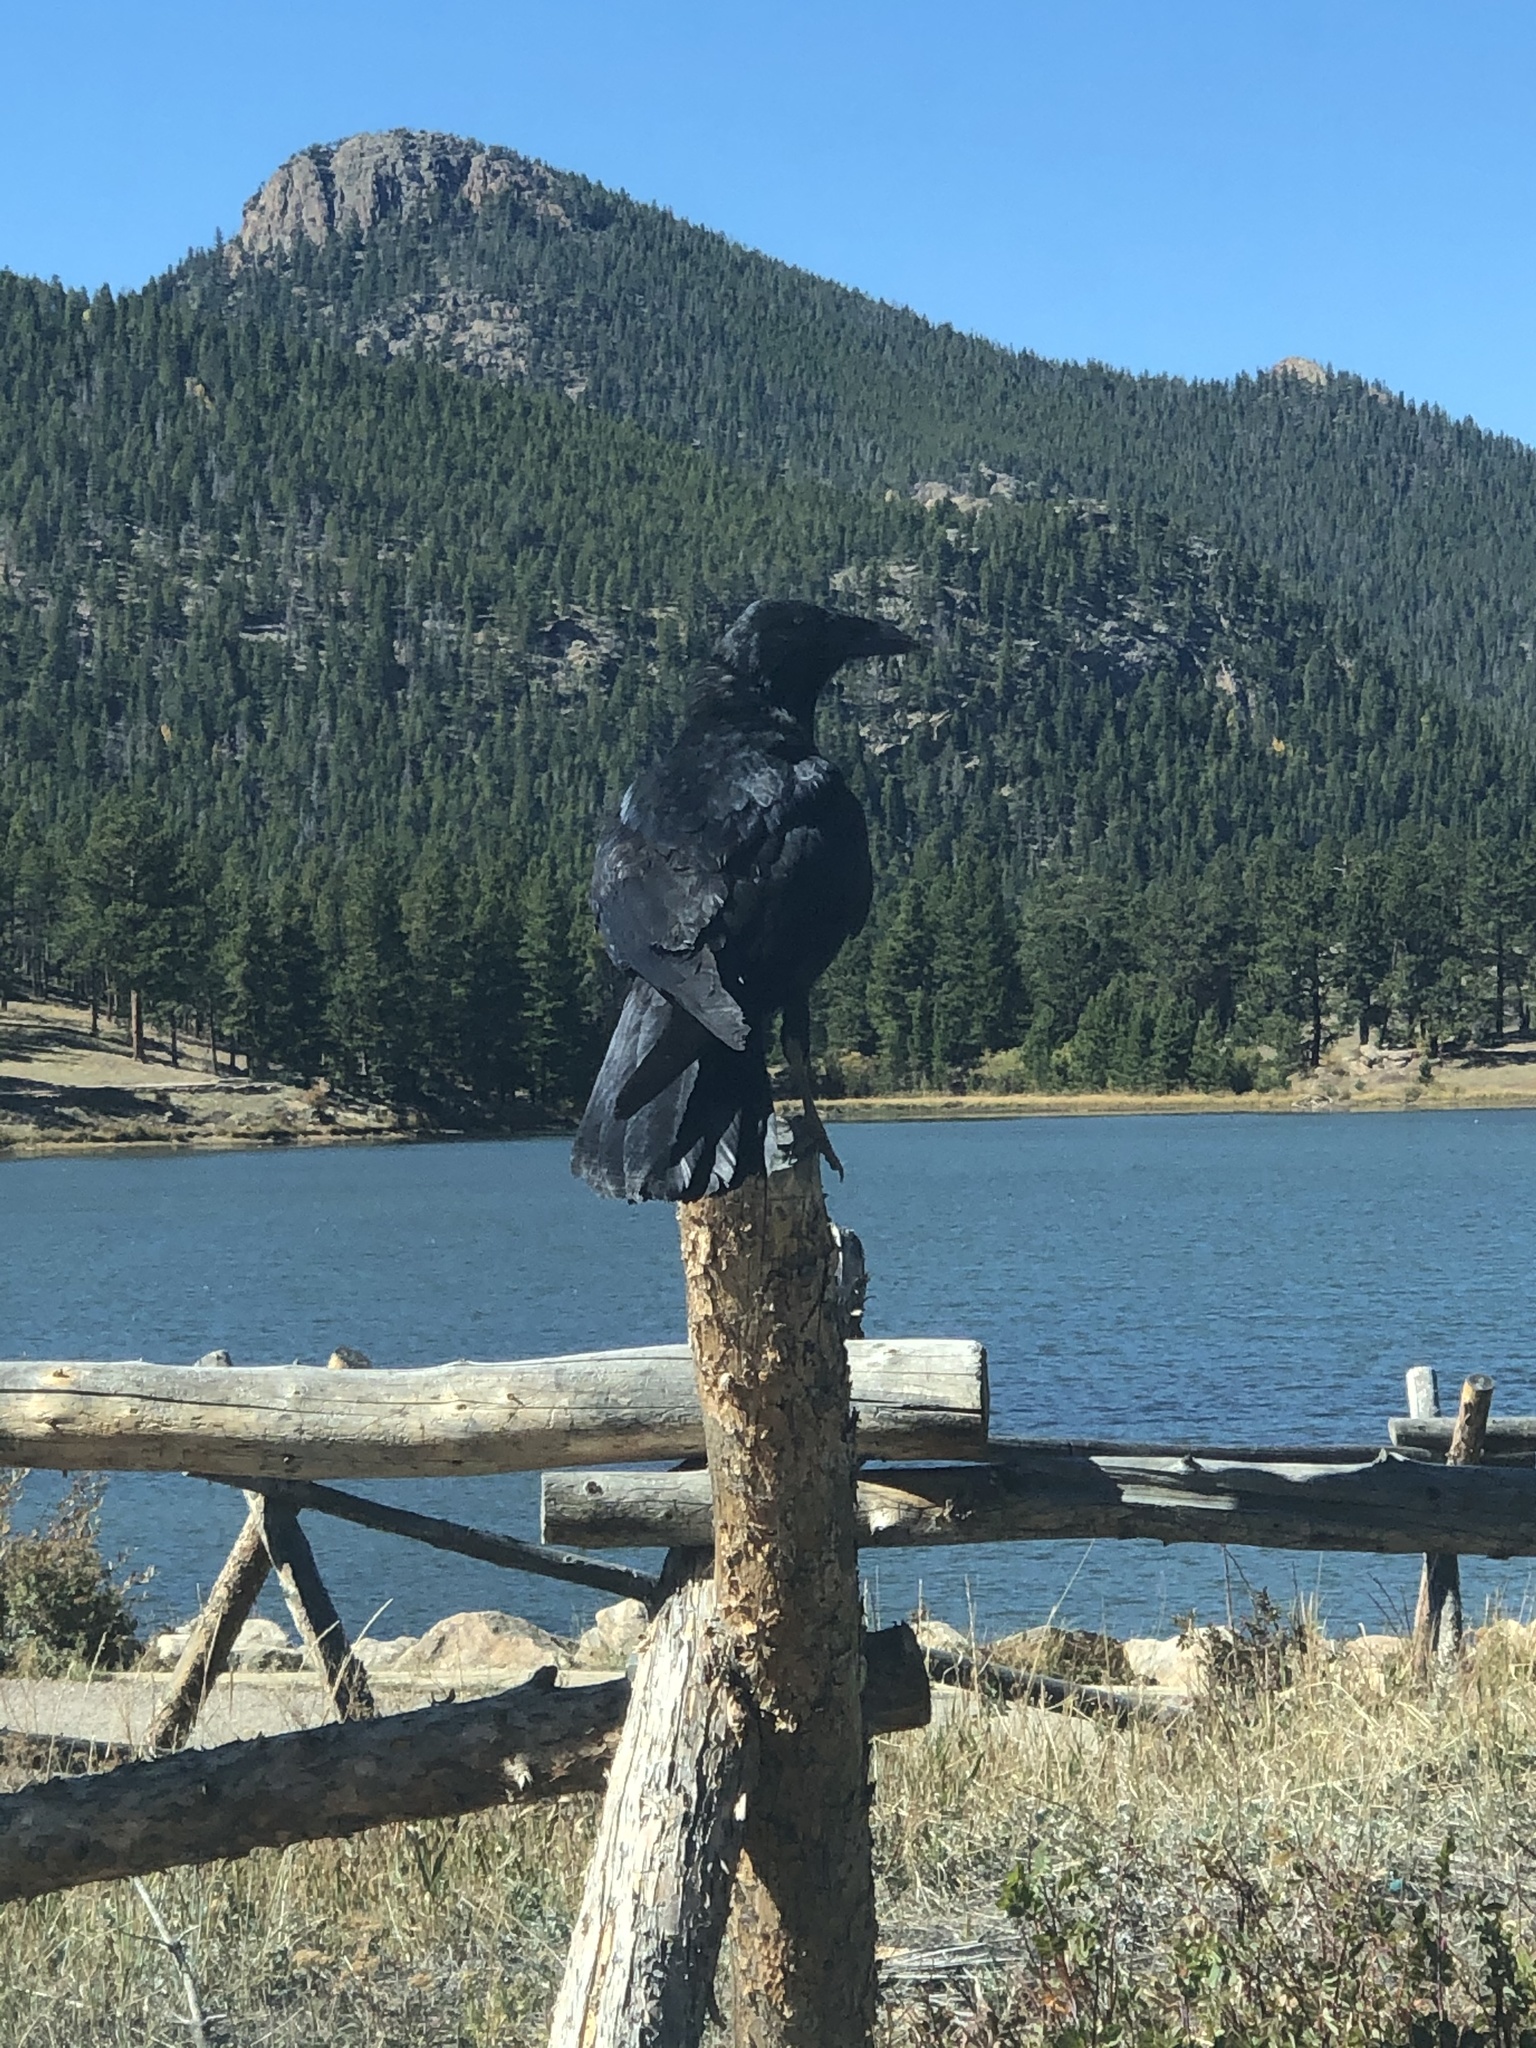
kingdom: Animalia
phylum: Chordata
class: Aves
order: Passeriformes
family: Corvidae
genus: Corvus
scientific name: Corvus corax
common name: Common raven
